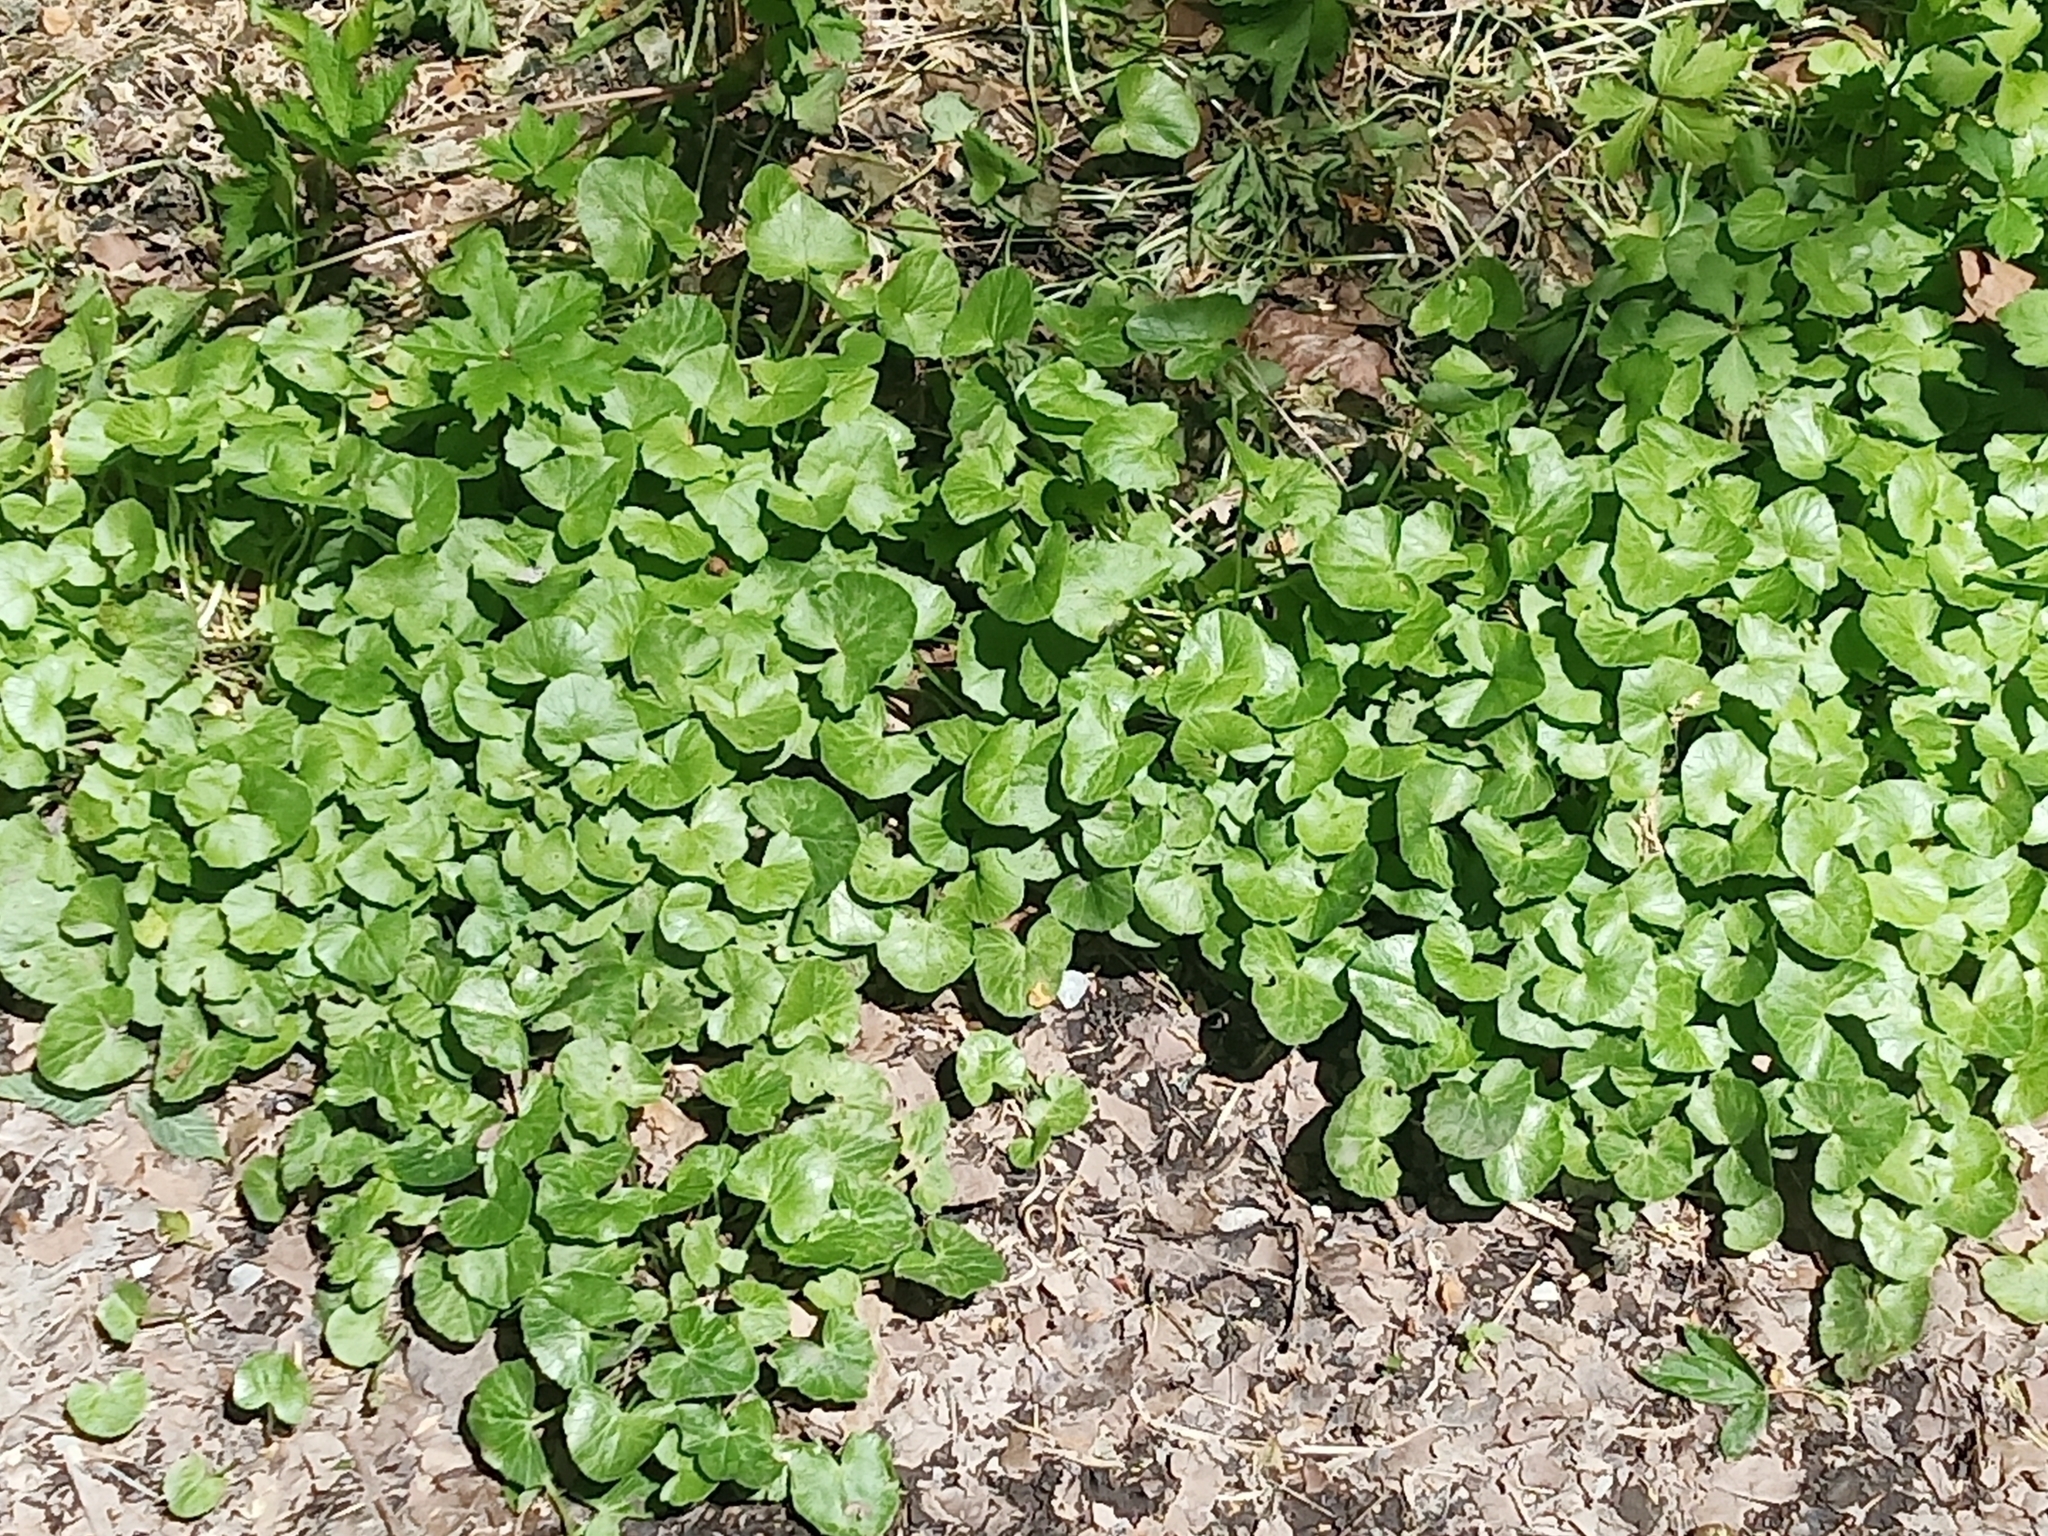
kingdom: Plantae
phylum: Tracheophyta
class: Magnoliopsida
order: Ranunculales
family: Ranunculaceae
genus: Ficaria
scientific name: Ficaria verna
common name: Lesser celandine
